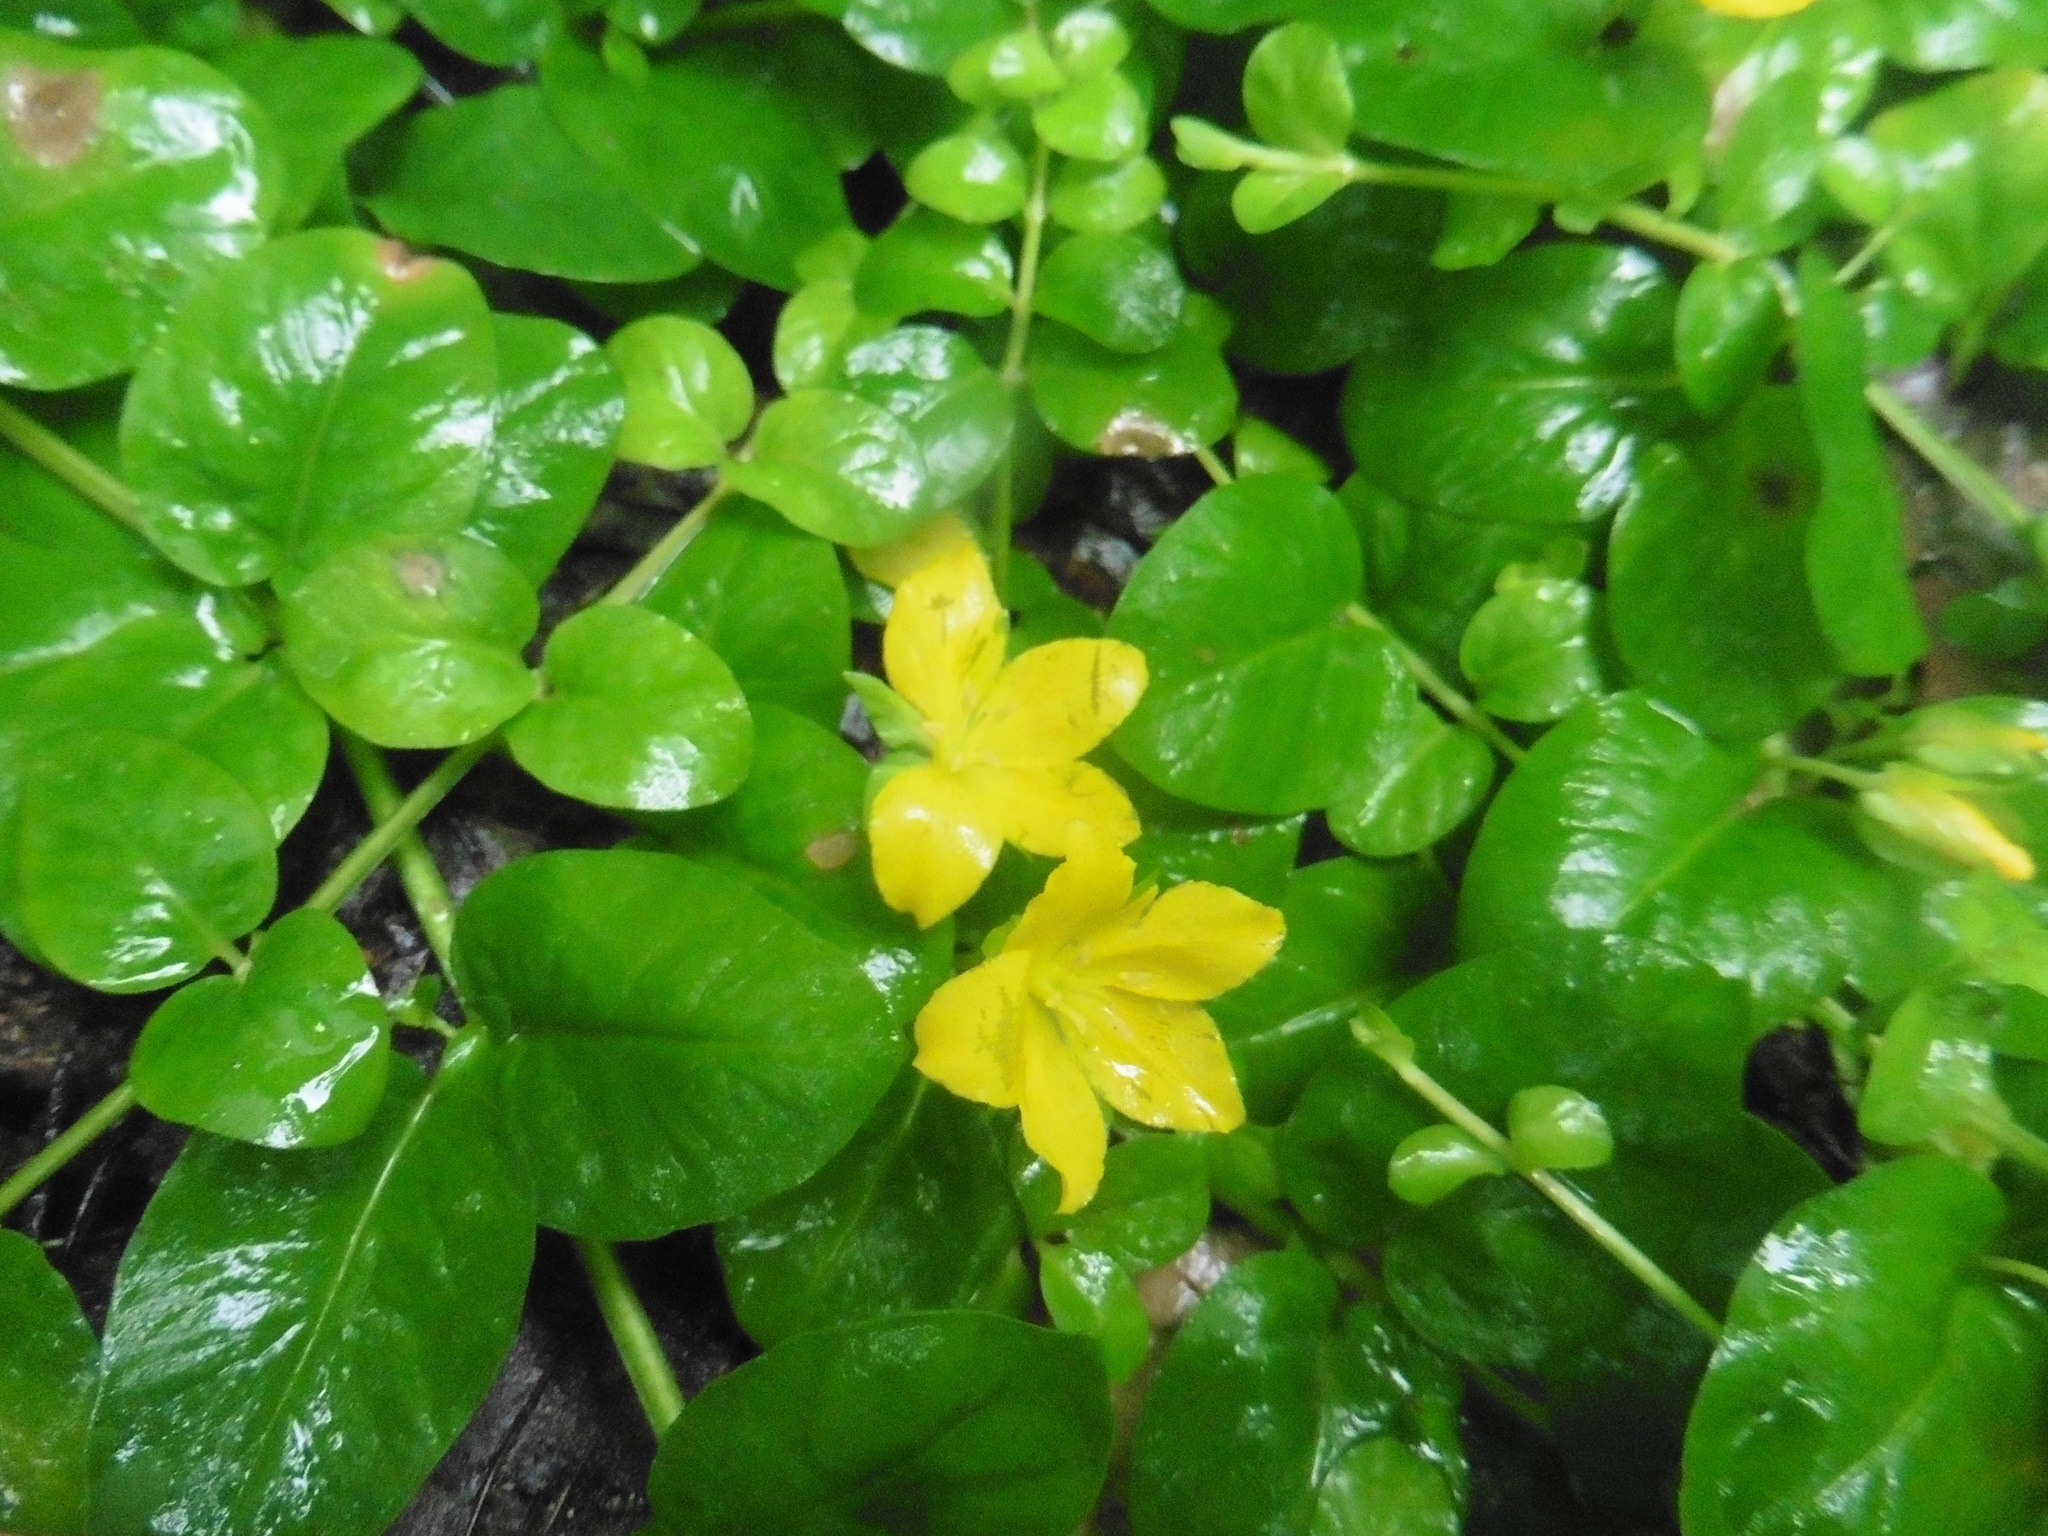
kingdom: Plantae
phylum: Tracheophyta
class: Magnoliopsida
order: Ericales
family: Primulaceae
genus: Lysimachia
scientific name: Lysimachia nummularia
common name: Moneywort
